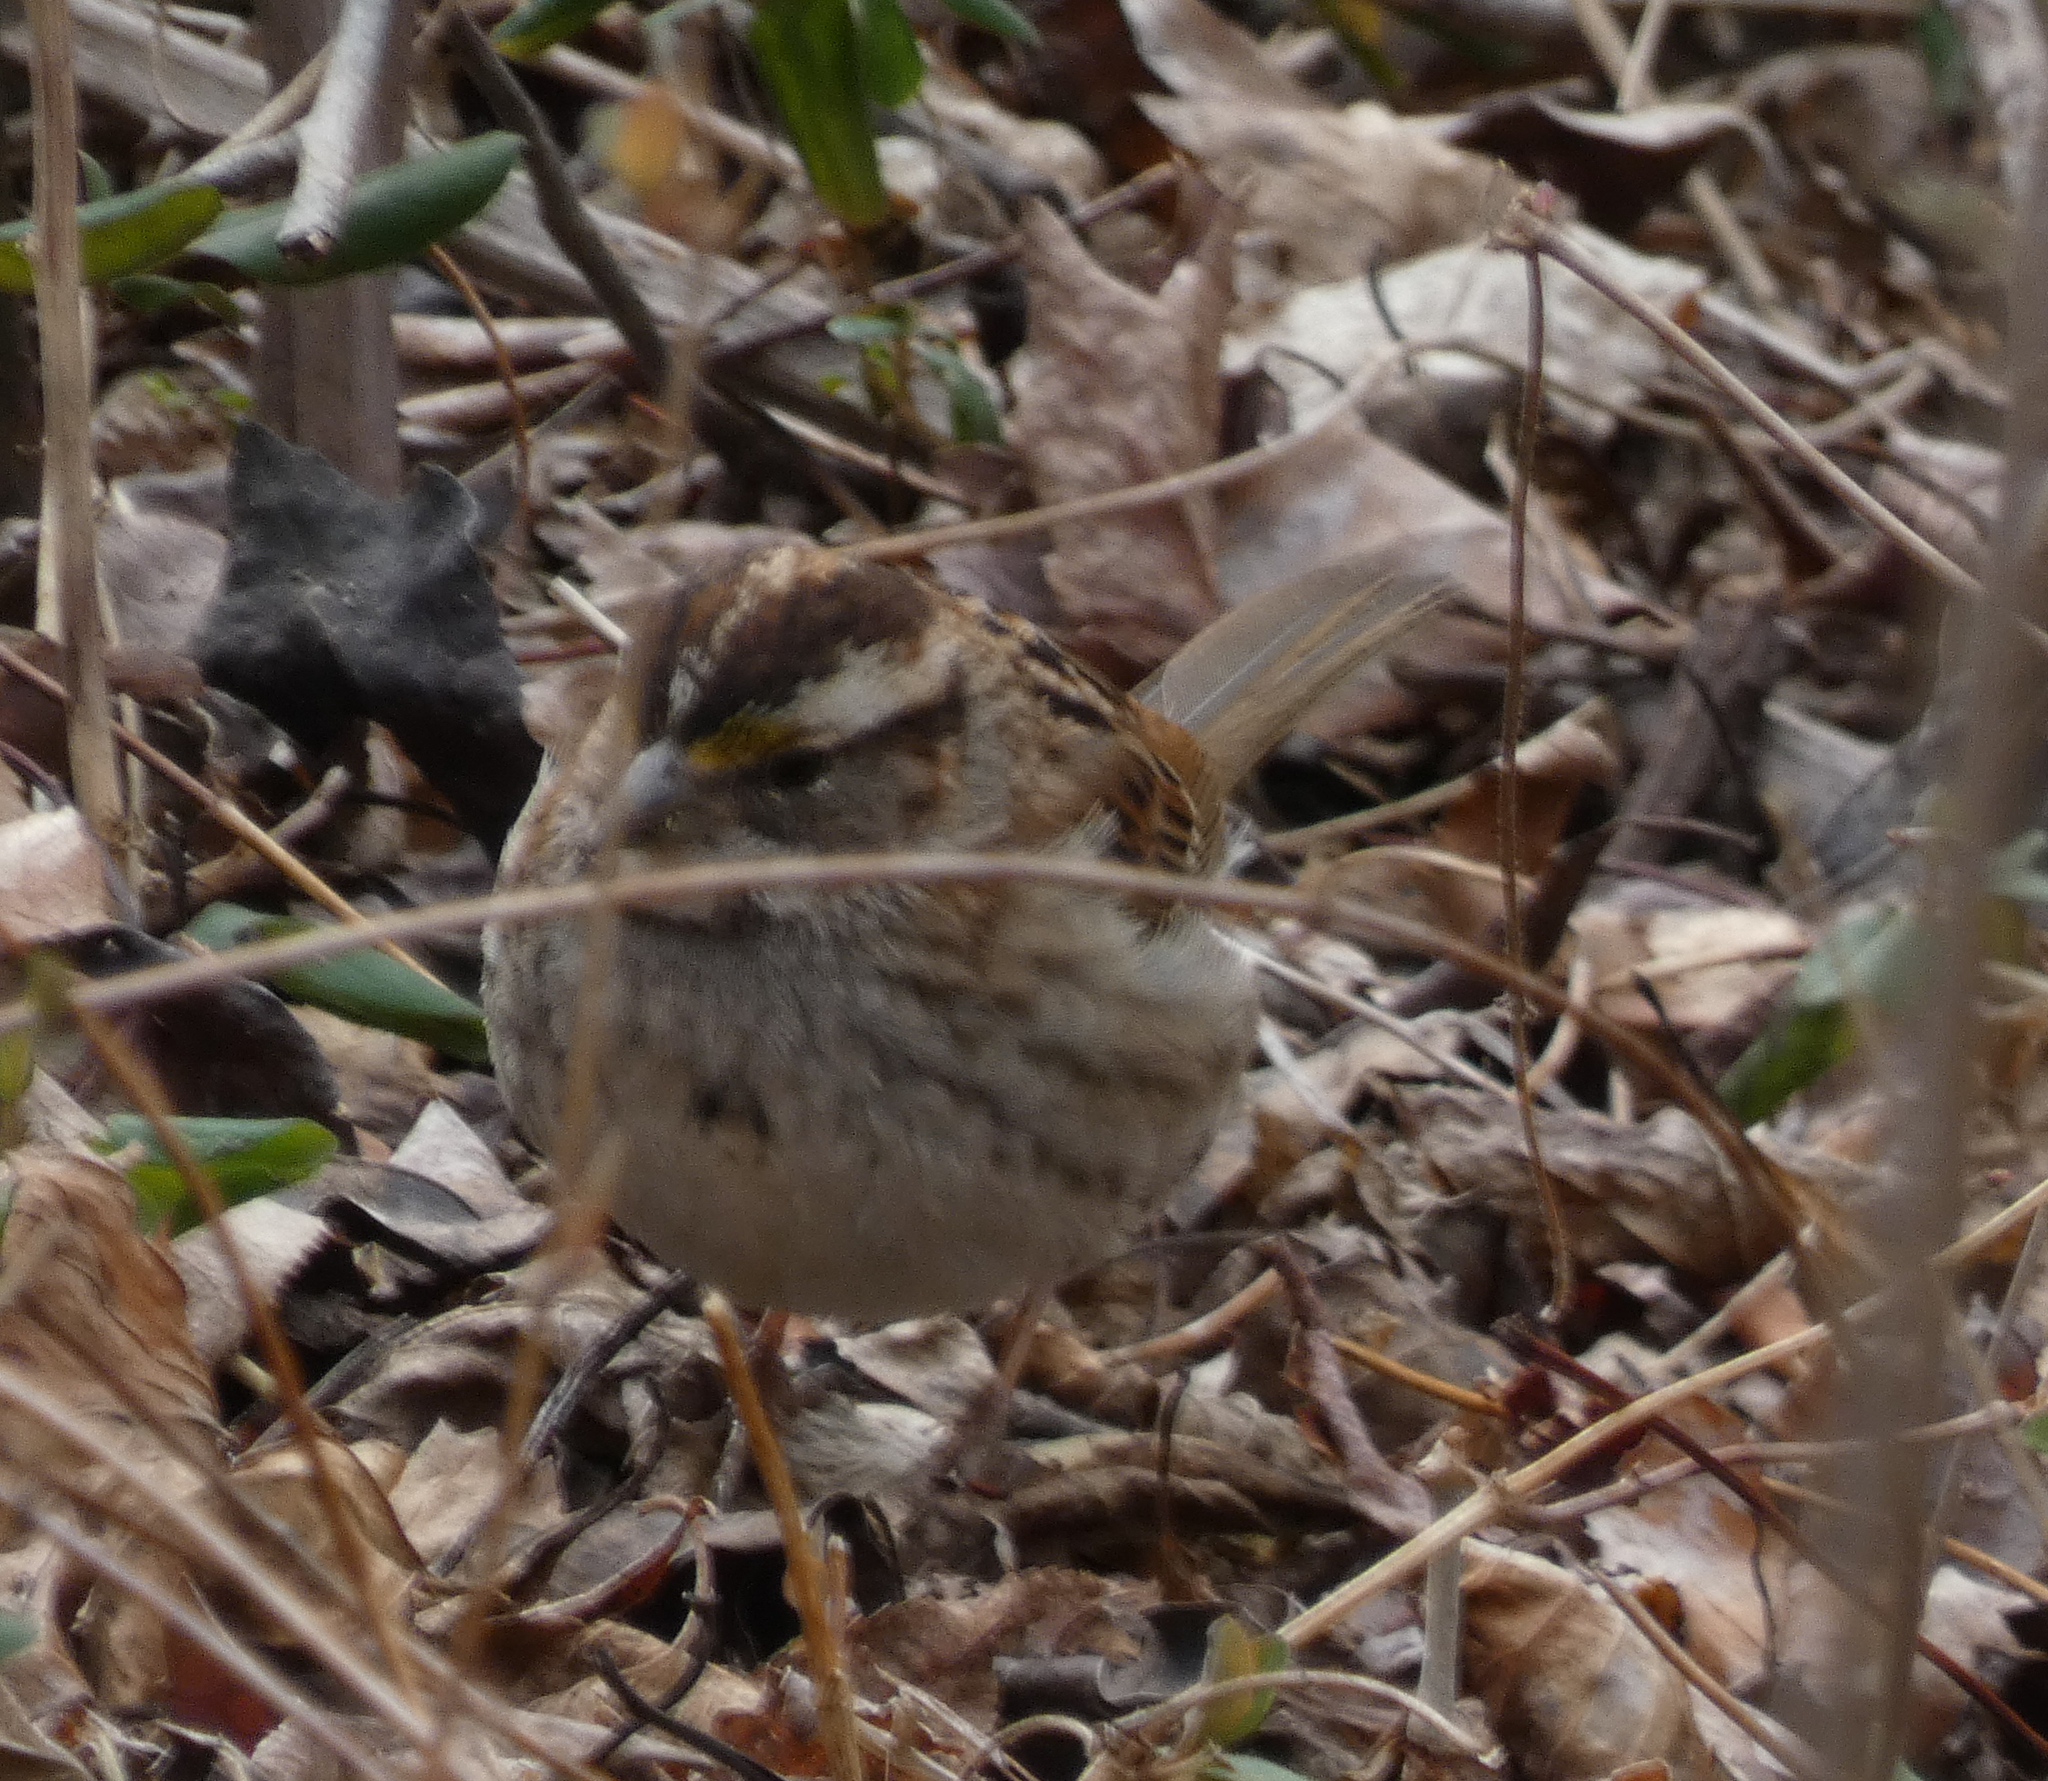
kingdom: Animalia
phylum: Chordata
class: Aves
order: Passeriformes
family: Passerellidae
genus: Zonotrichia
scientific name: Zonotrichia albicollis
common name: White-throated sparrow
